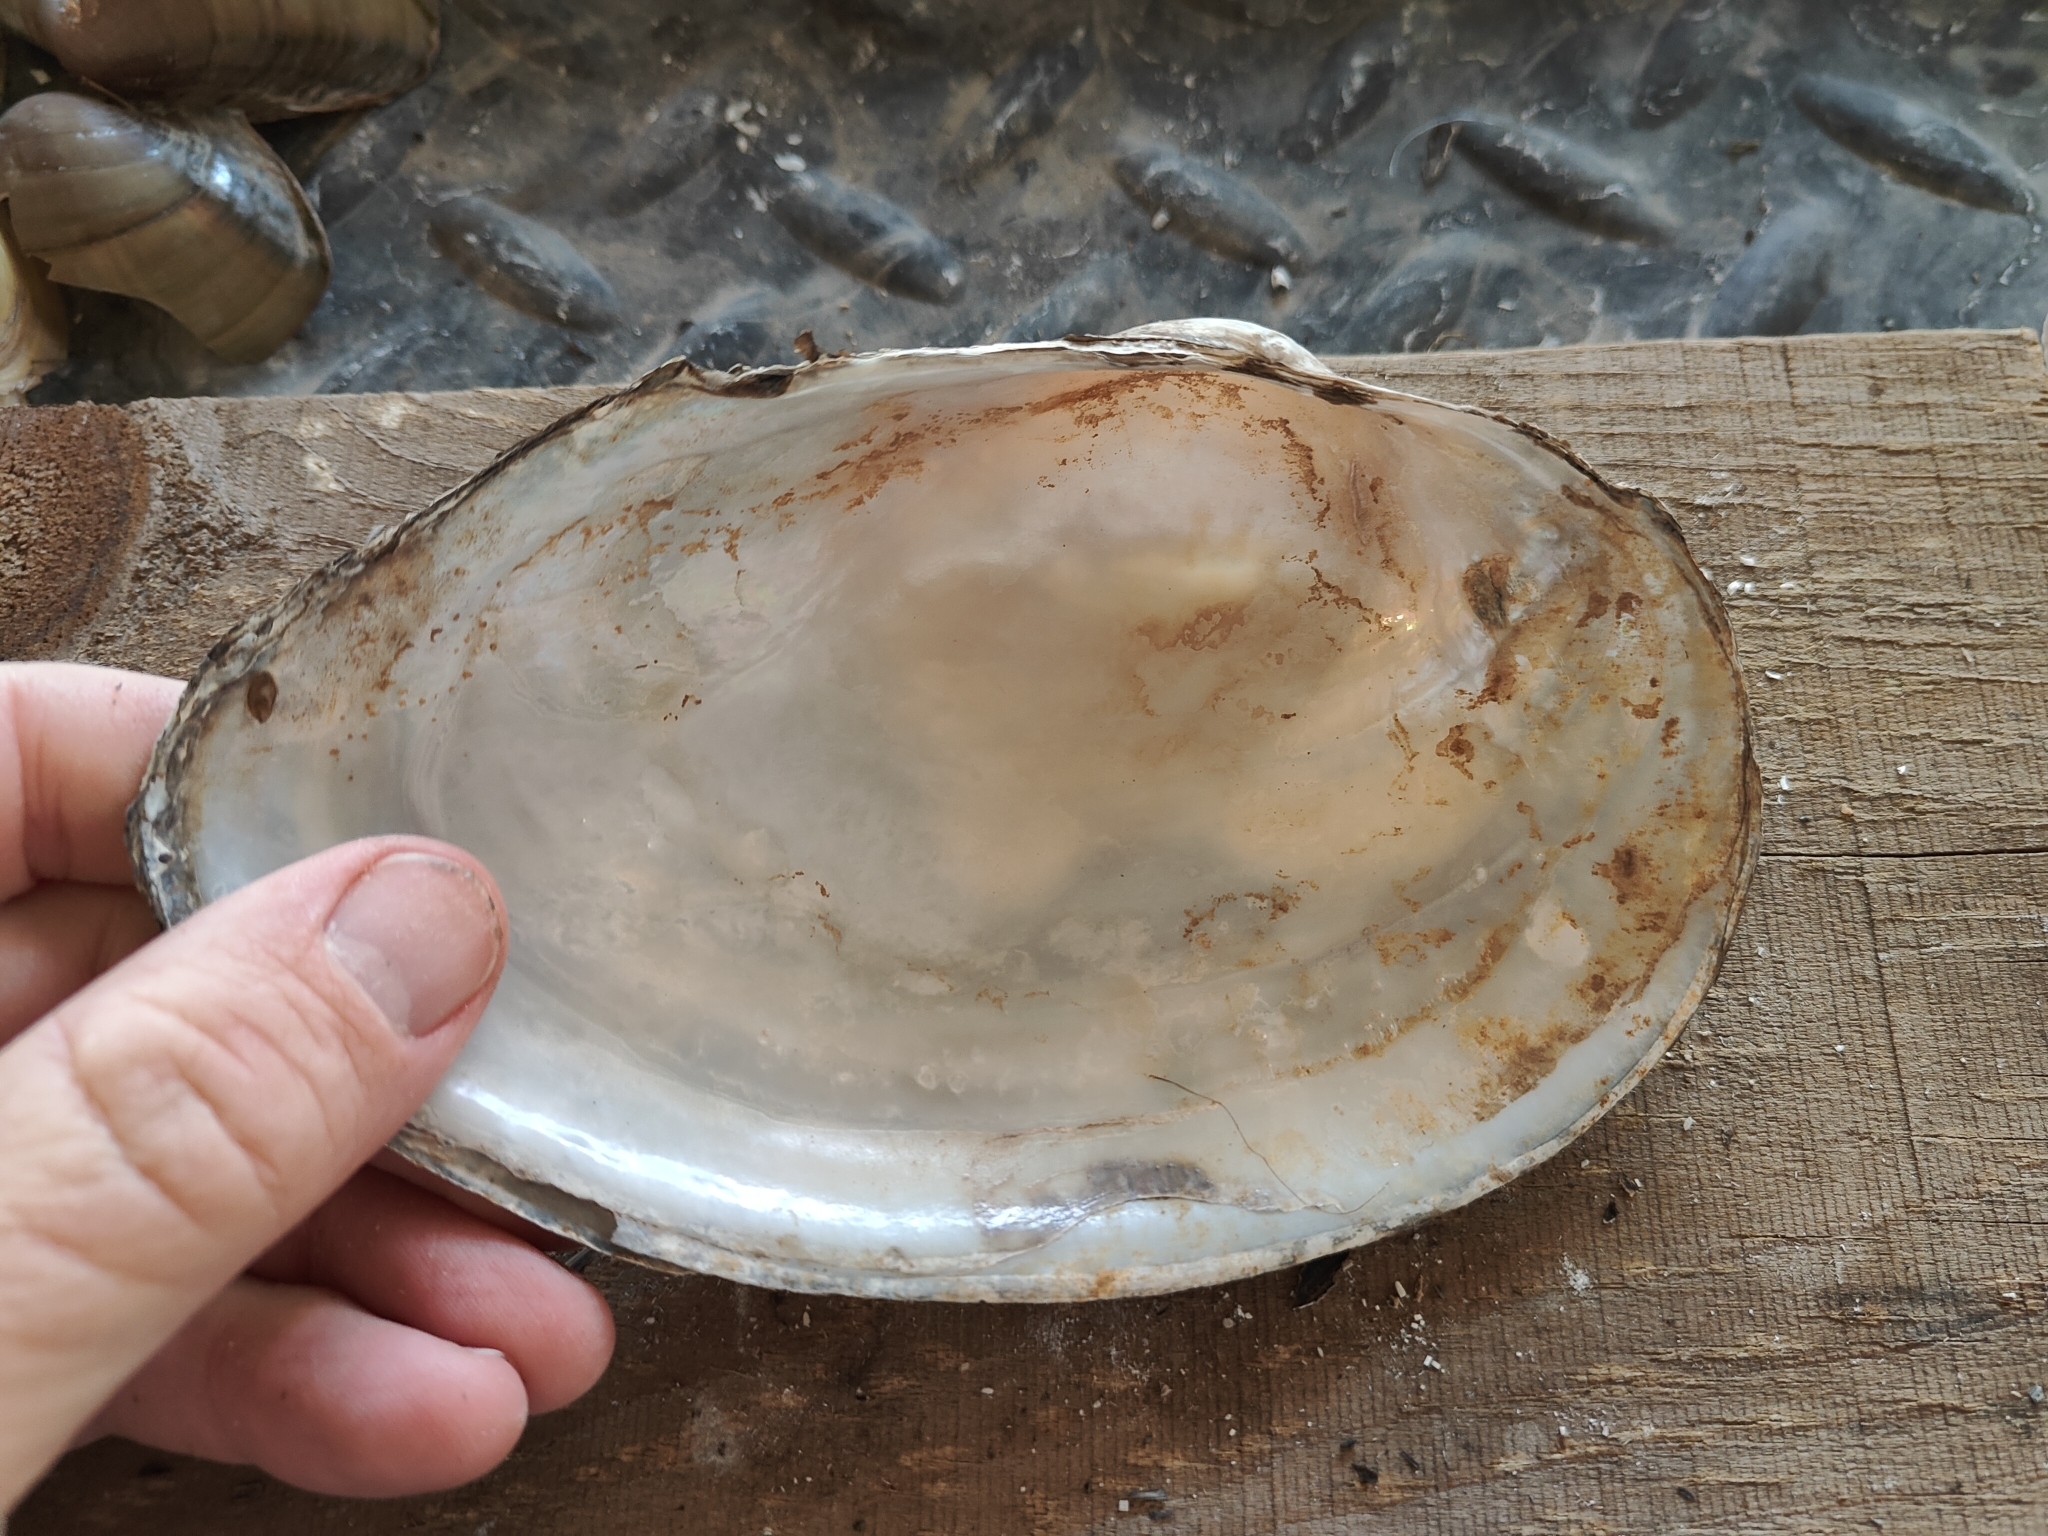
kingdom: Animalia
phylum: Mollusca
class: Bivalvia
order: Unionida
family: Unionidae
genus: Pyganodon
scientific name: Pyganodon grandis
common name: Giant floater
